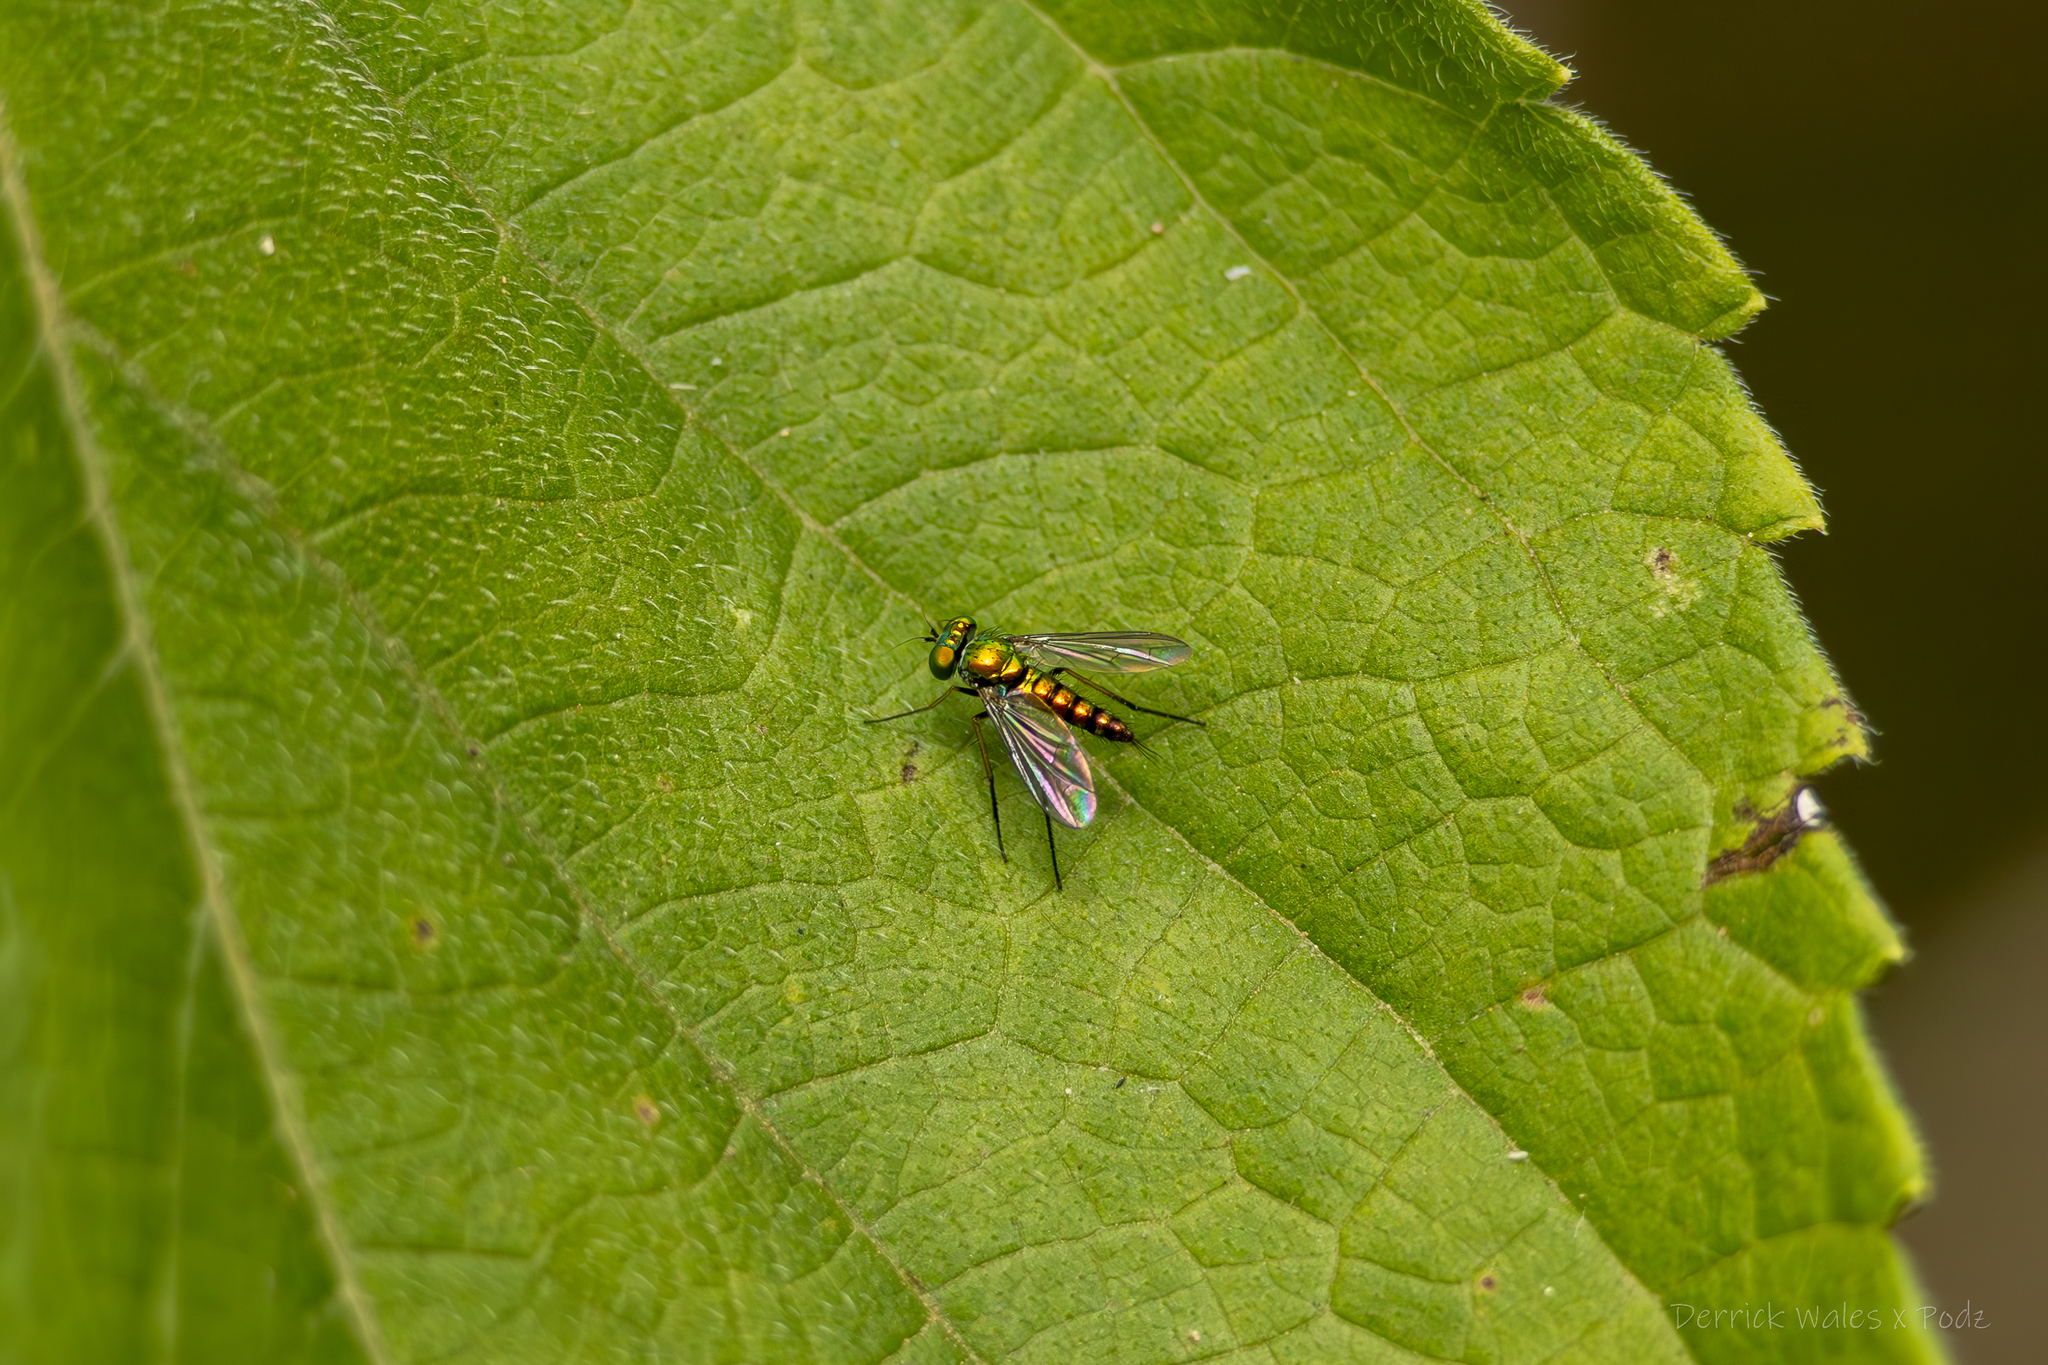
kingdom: Animalia
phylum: Arthropoda
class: Insecta
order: Diptera
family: Dolichopodidae
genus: Condylostylus
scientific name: Condylostylus caudatus
